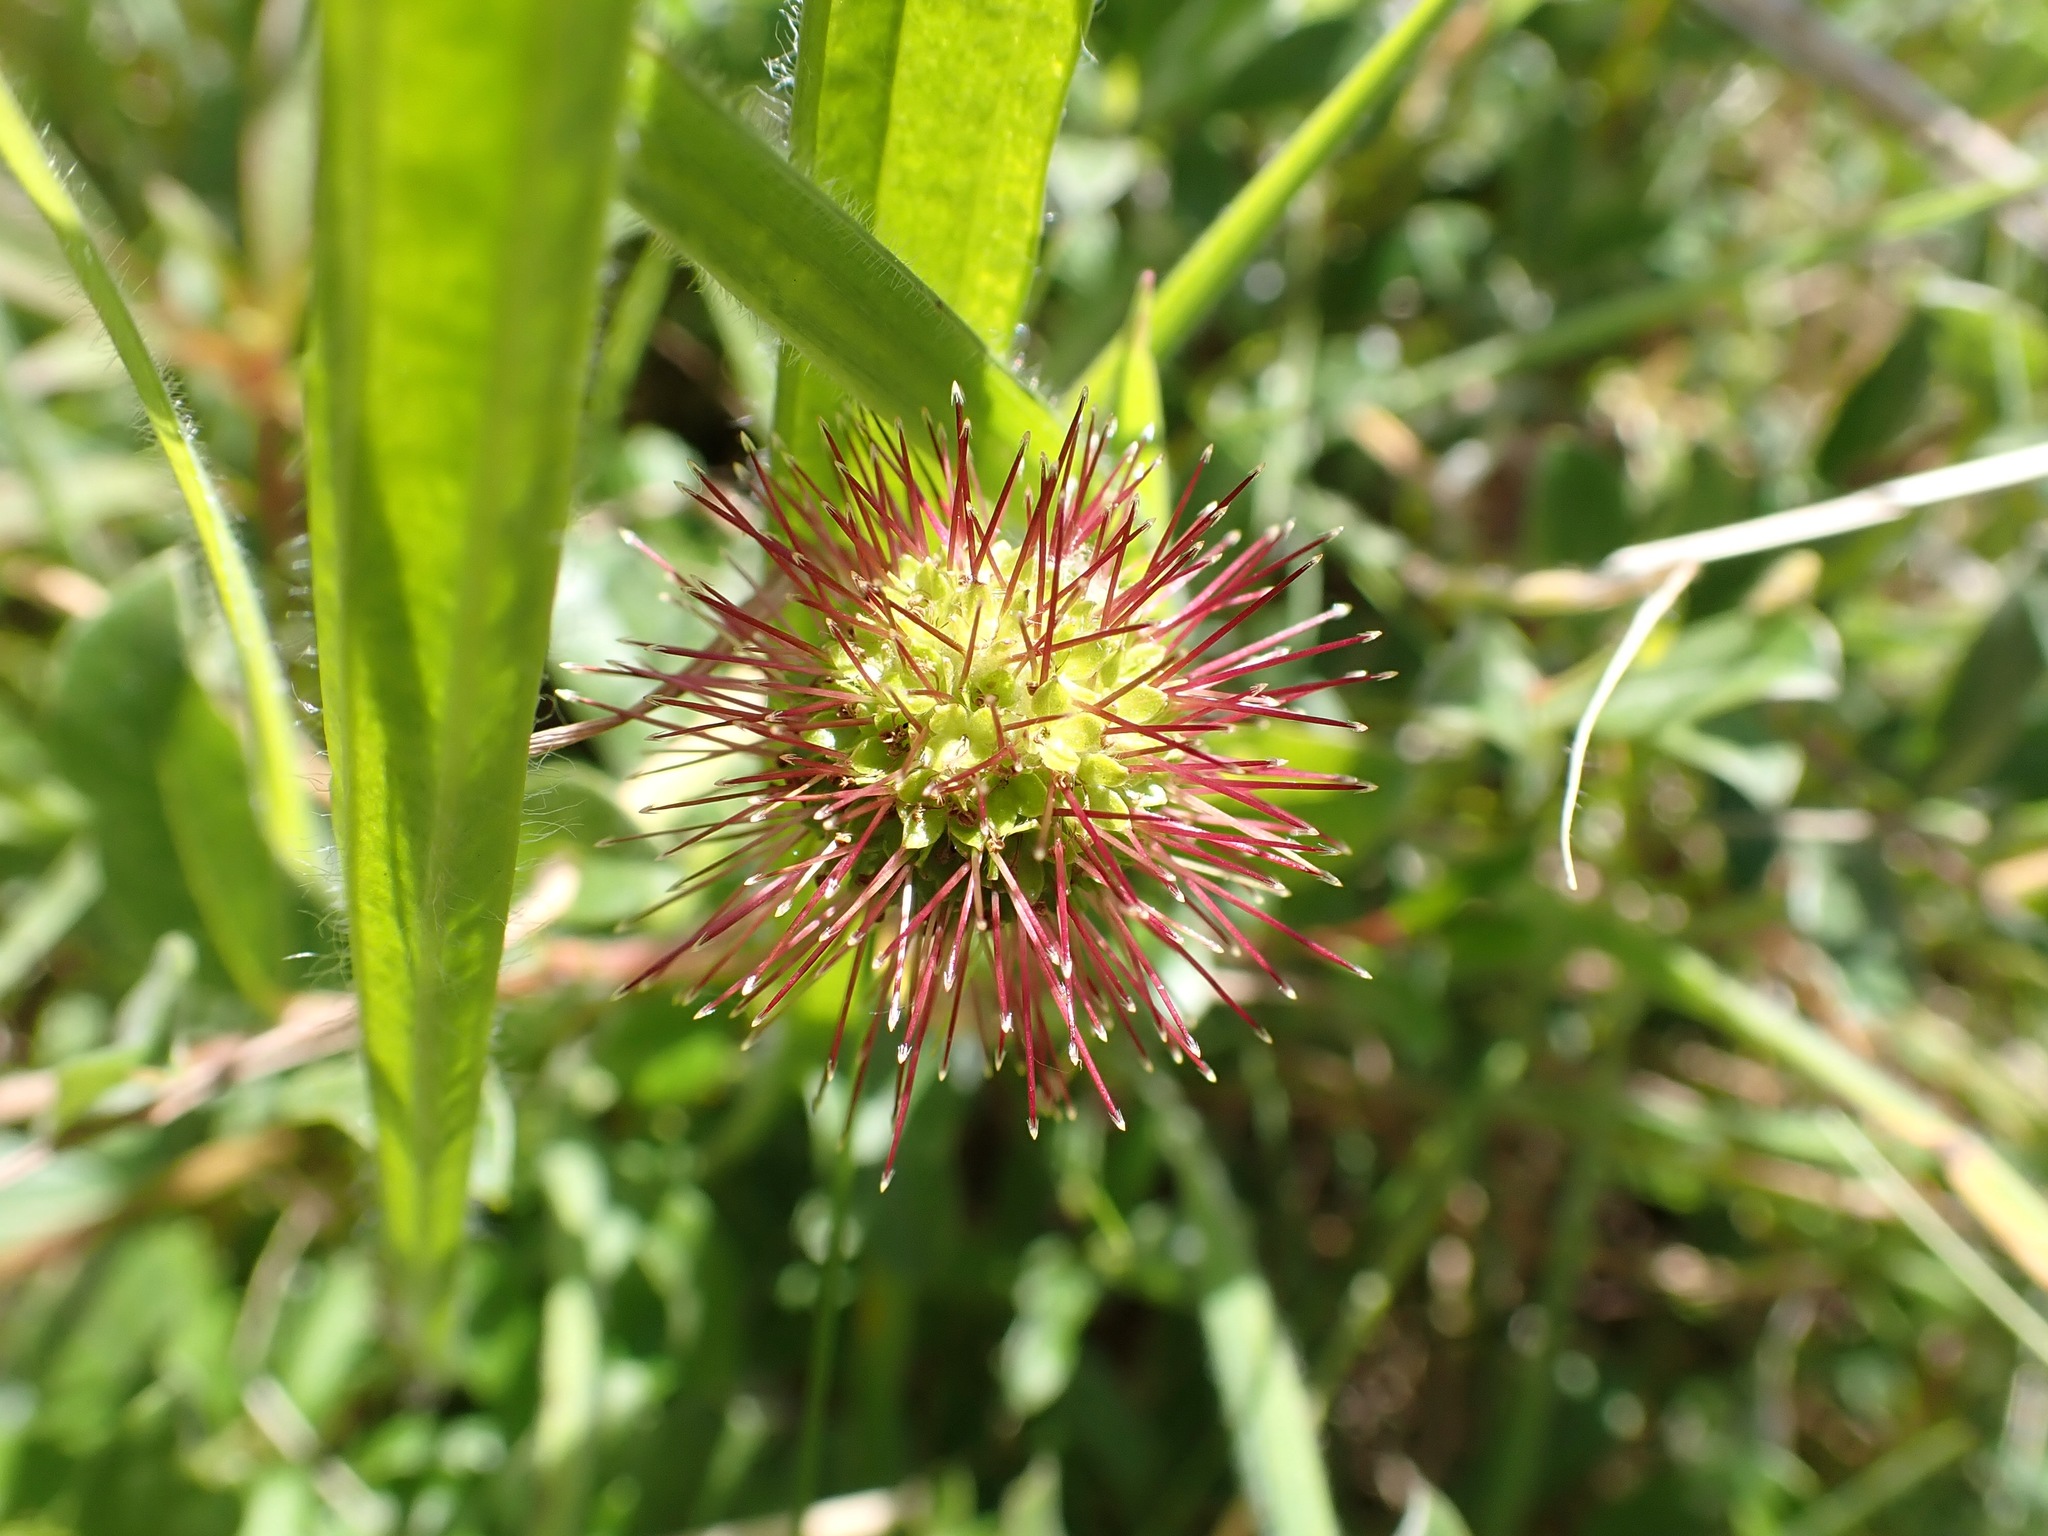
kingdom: Plantae
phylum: Tracheophyta
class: Magnoliopsida
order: Rosales
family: Rosaceae
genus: Acaena
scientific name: Acaena novae-zelandiae
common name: Pirri-pirri-bur
